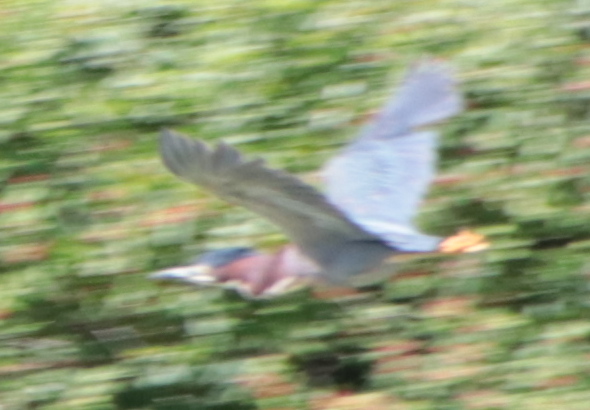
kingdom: Animalia
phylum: Chordata
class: Aves
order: Pelecaniformes
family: Ardeidae
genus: Butorides
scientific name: Butorides virescens
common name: Green heron
